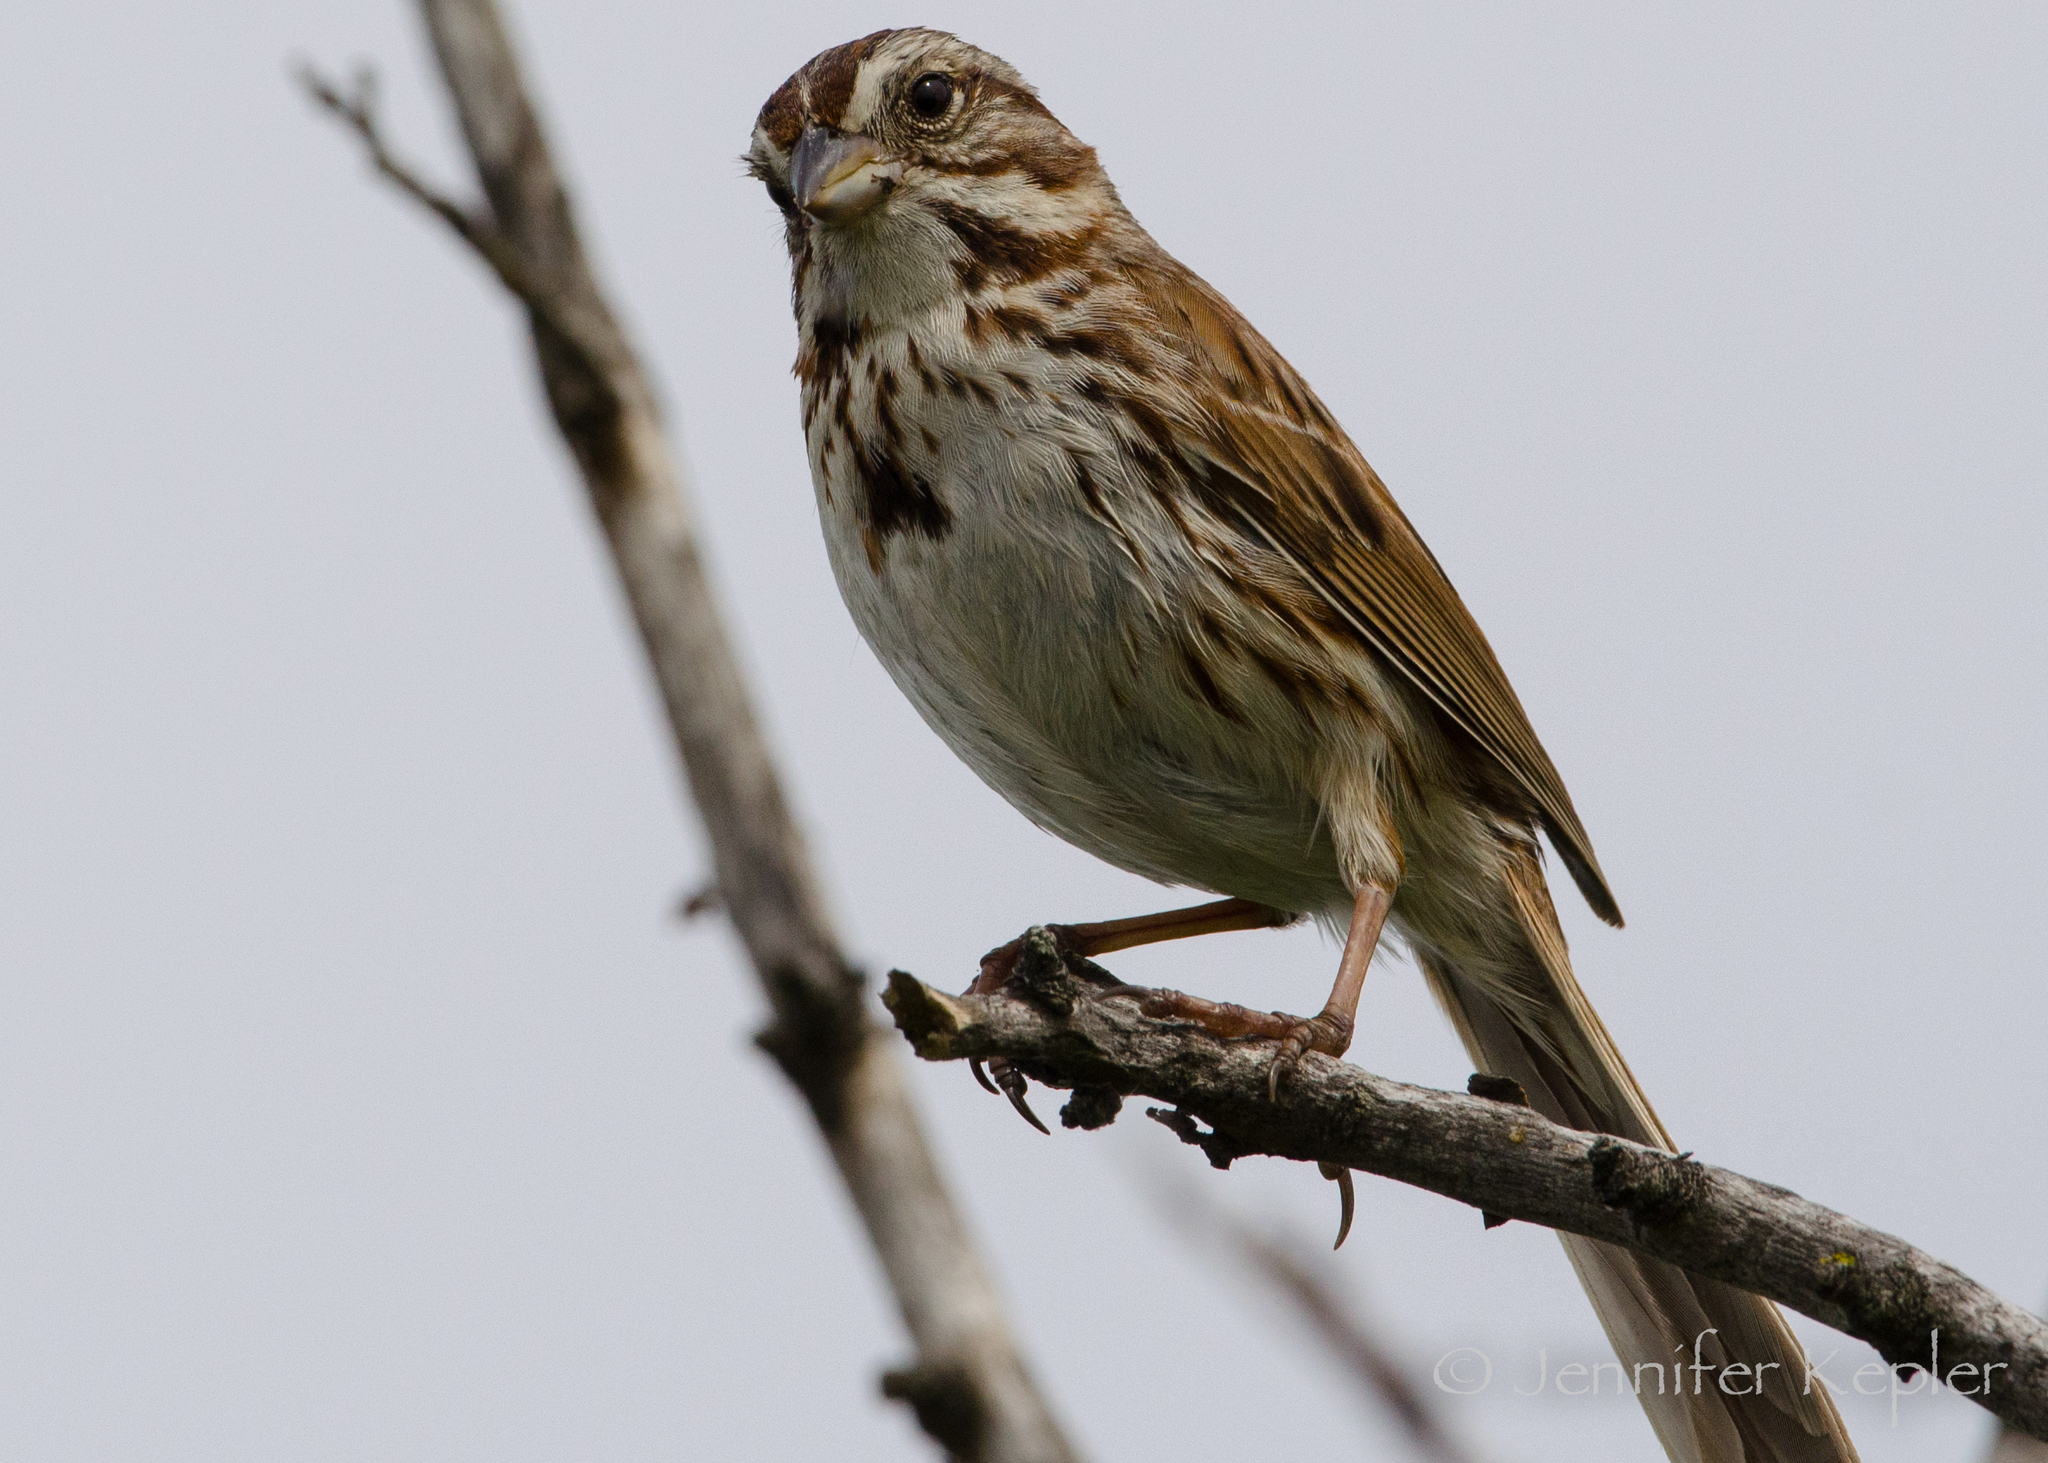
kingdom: Animalia
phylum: Chordata
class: Aves
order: Passeriformes
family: Passerellidae
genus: Melospiza
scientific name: Melospiza melodia
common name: Song sparrow
